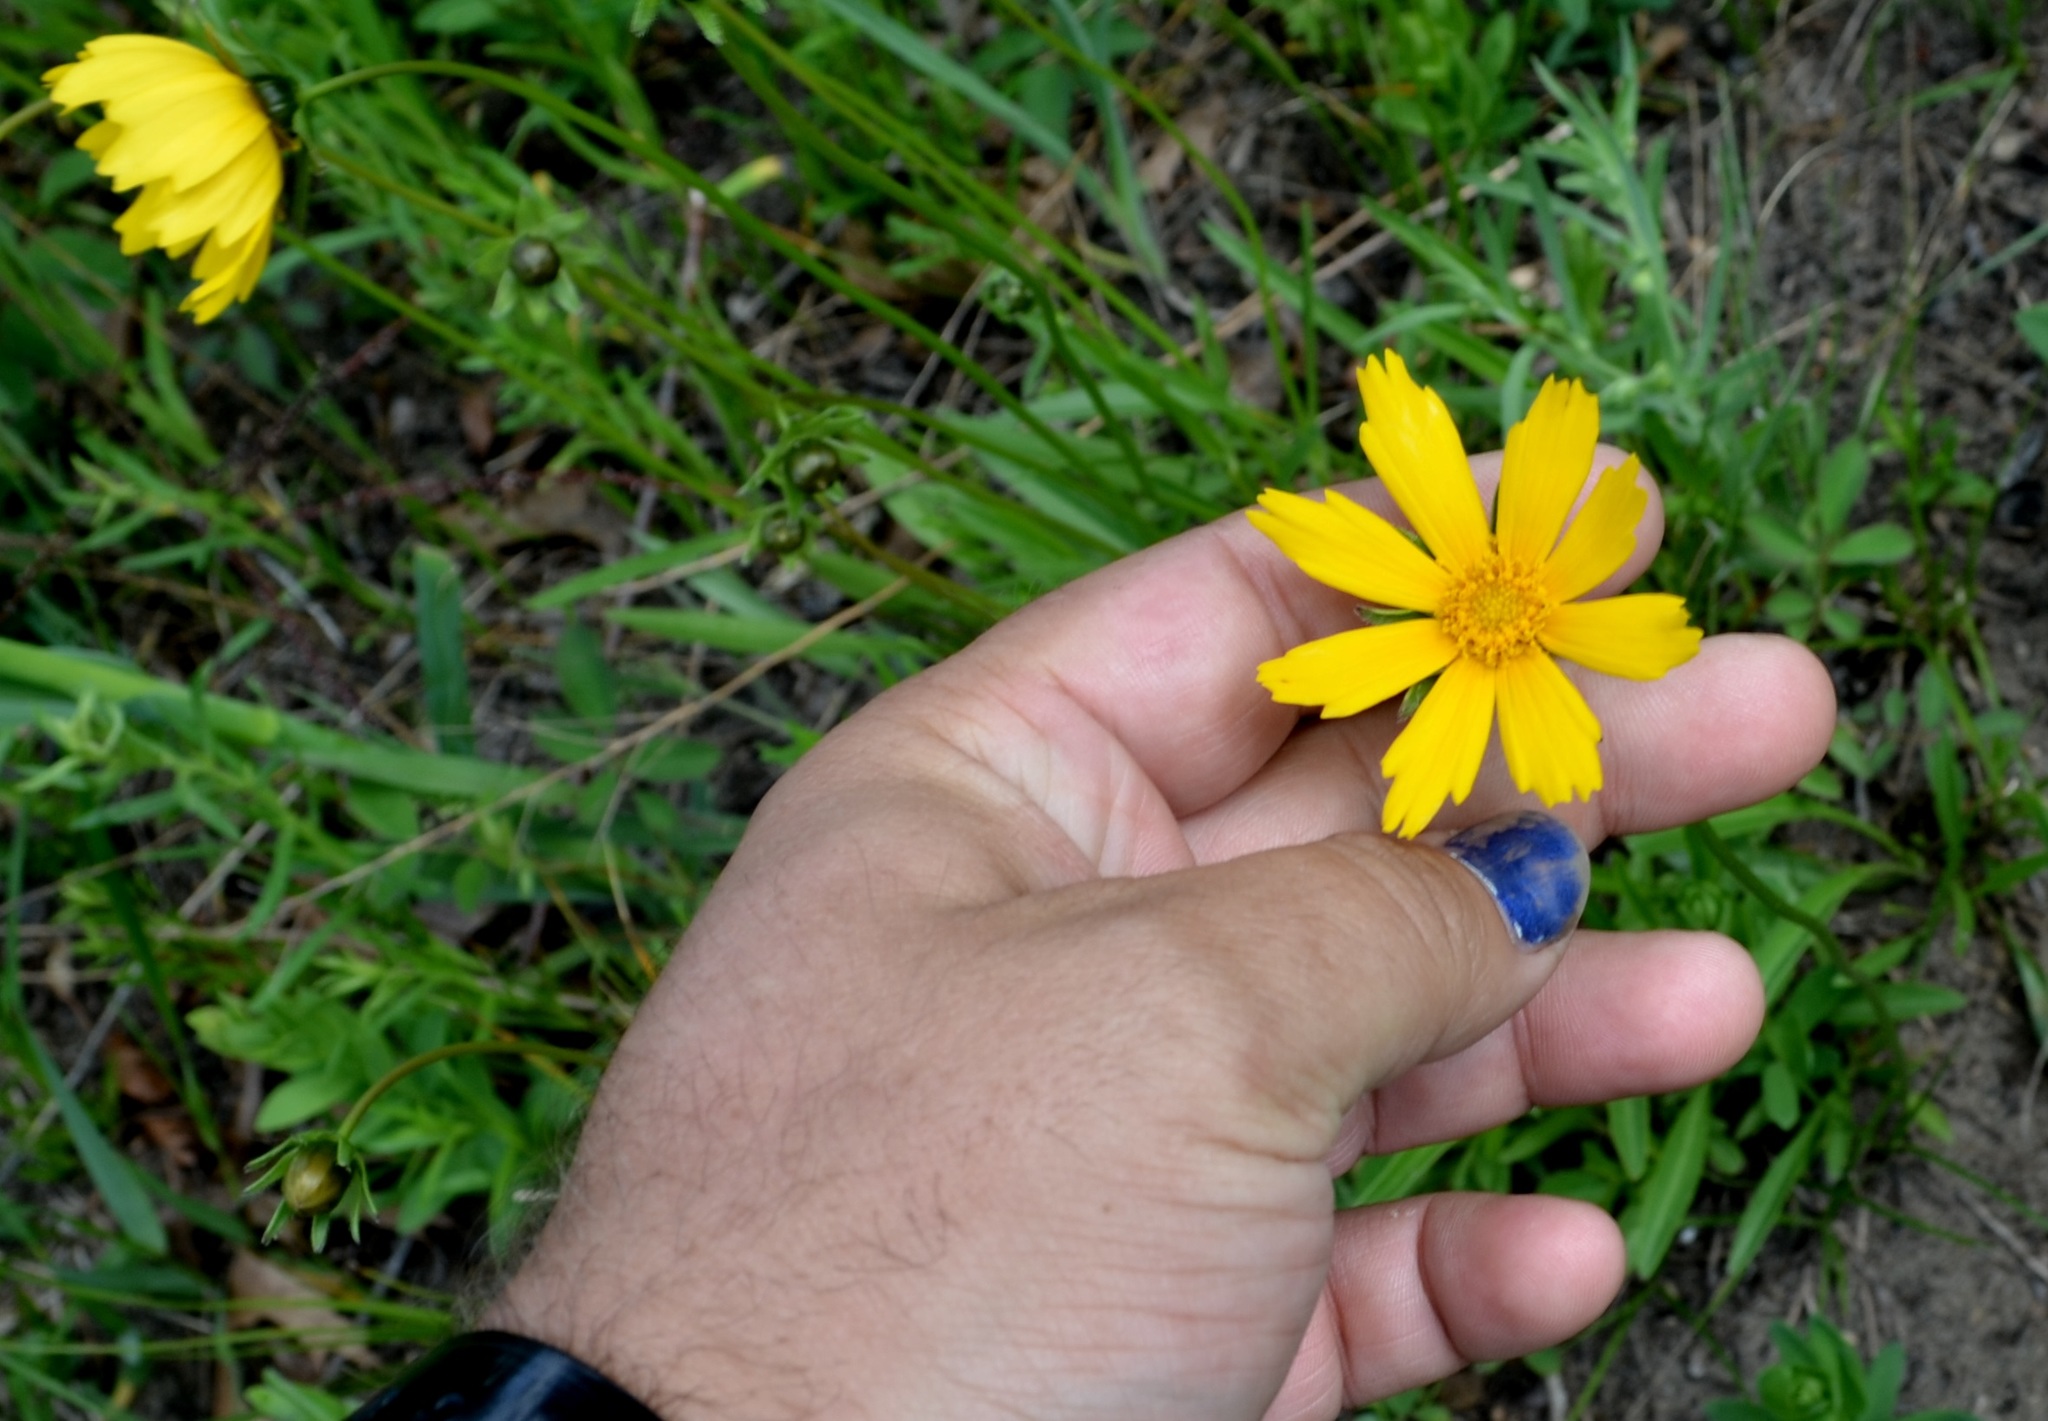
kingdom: Plantae
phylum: Tracheophyta
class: Magnoliopsida
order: Asterales
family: Asteraceae
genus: Coreopsis
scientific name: Coreopsis lanceolata
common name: Garden coreopsis
